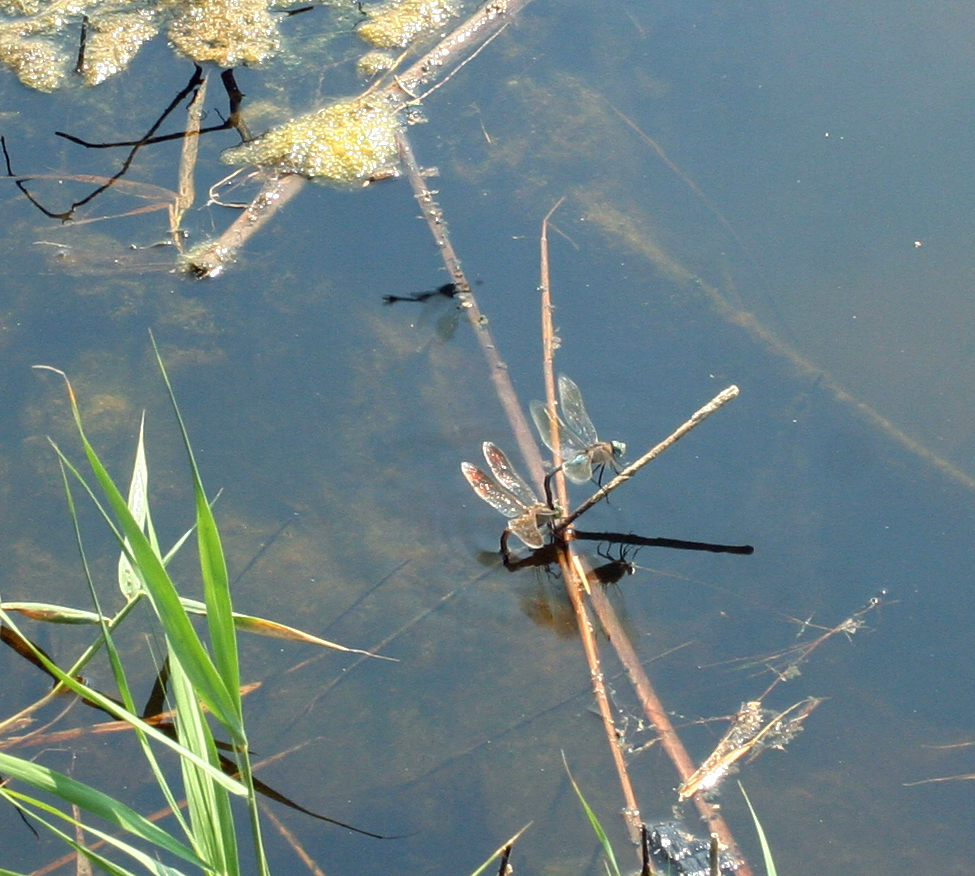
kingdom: Animalia
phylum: Arthropoda
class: Insecta
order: Odonata
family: Aeshnidae
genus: Anax
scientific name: Anax parthenope
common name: Lesser emperor
